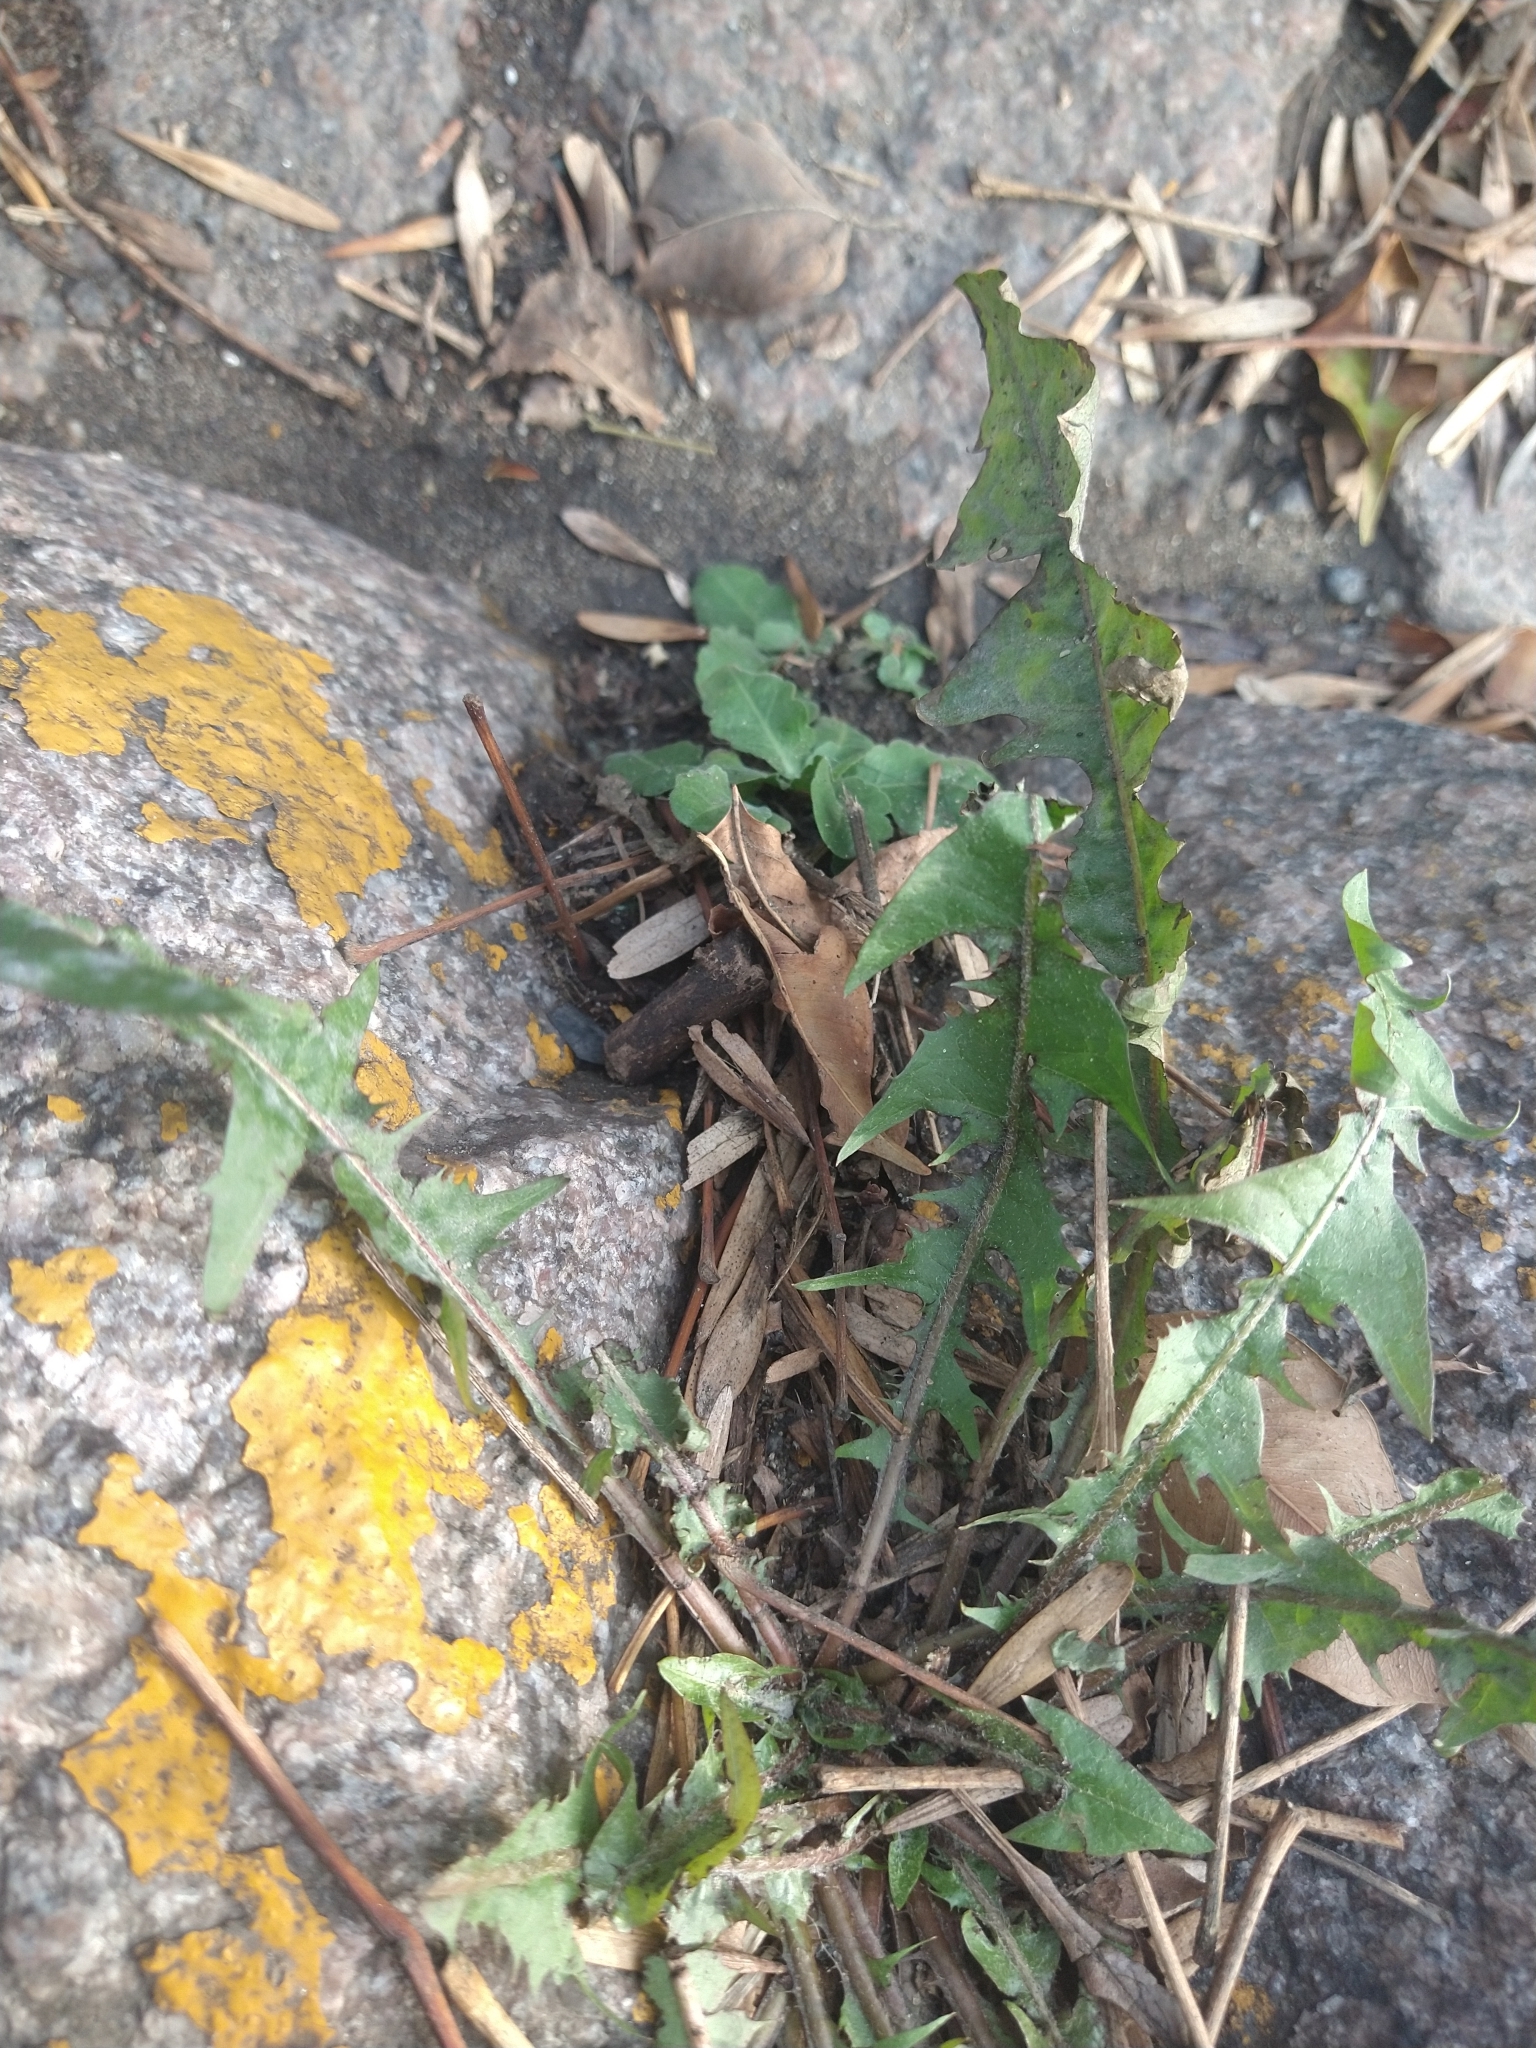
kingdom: Plantae
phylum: Tracheophyta
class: Magnoliopsida
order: Asterales
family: Asteraceae
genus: Taraxacum
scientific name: Taraxacum officinale
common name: Common dandelion
